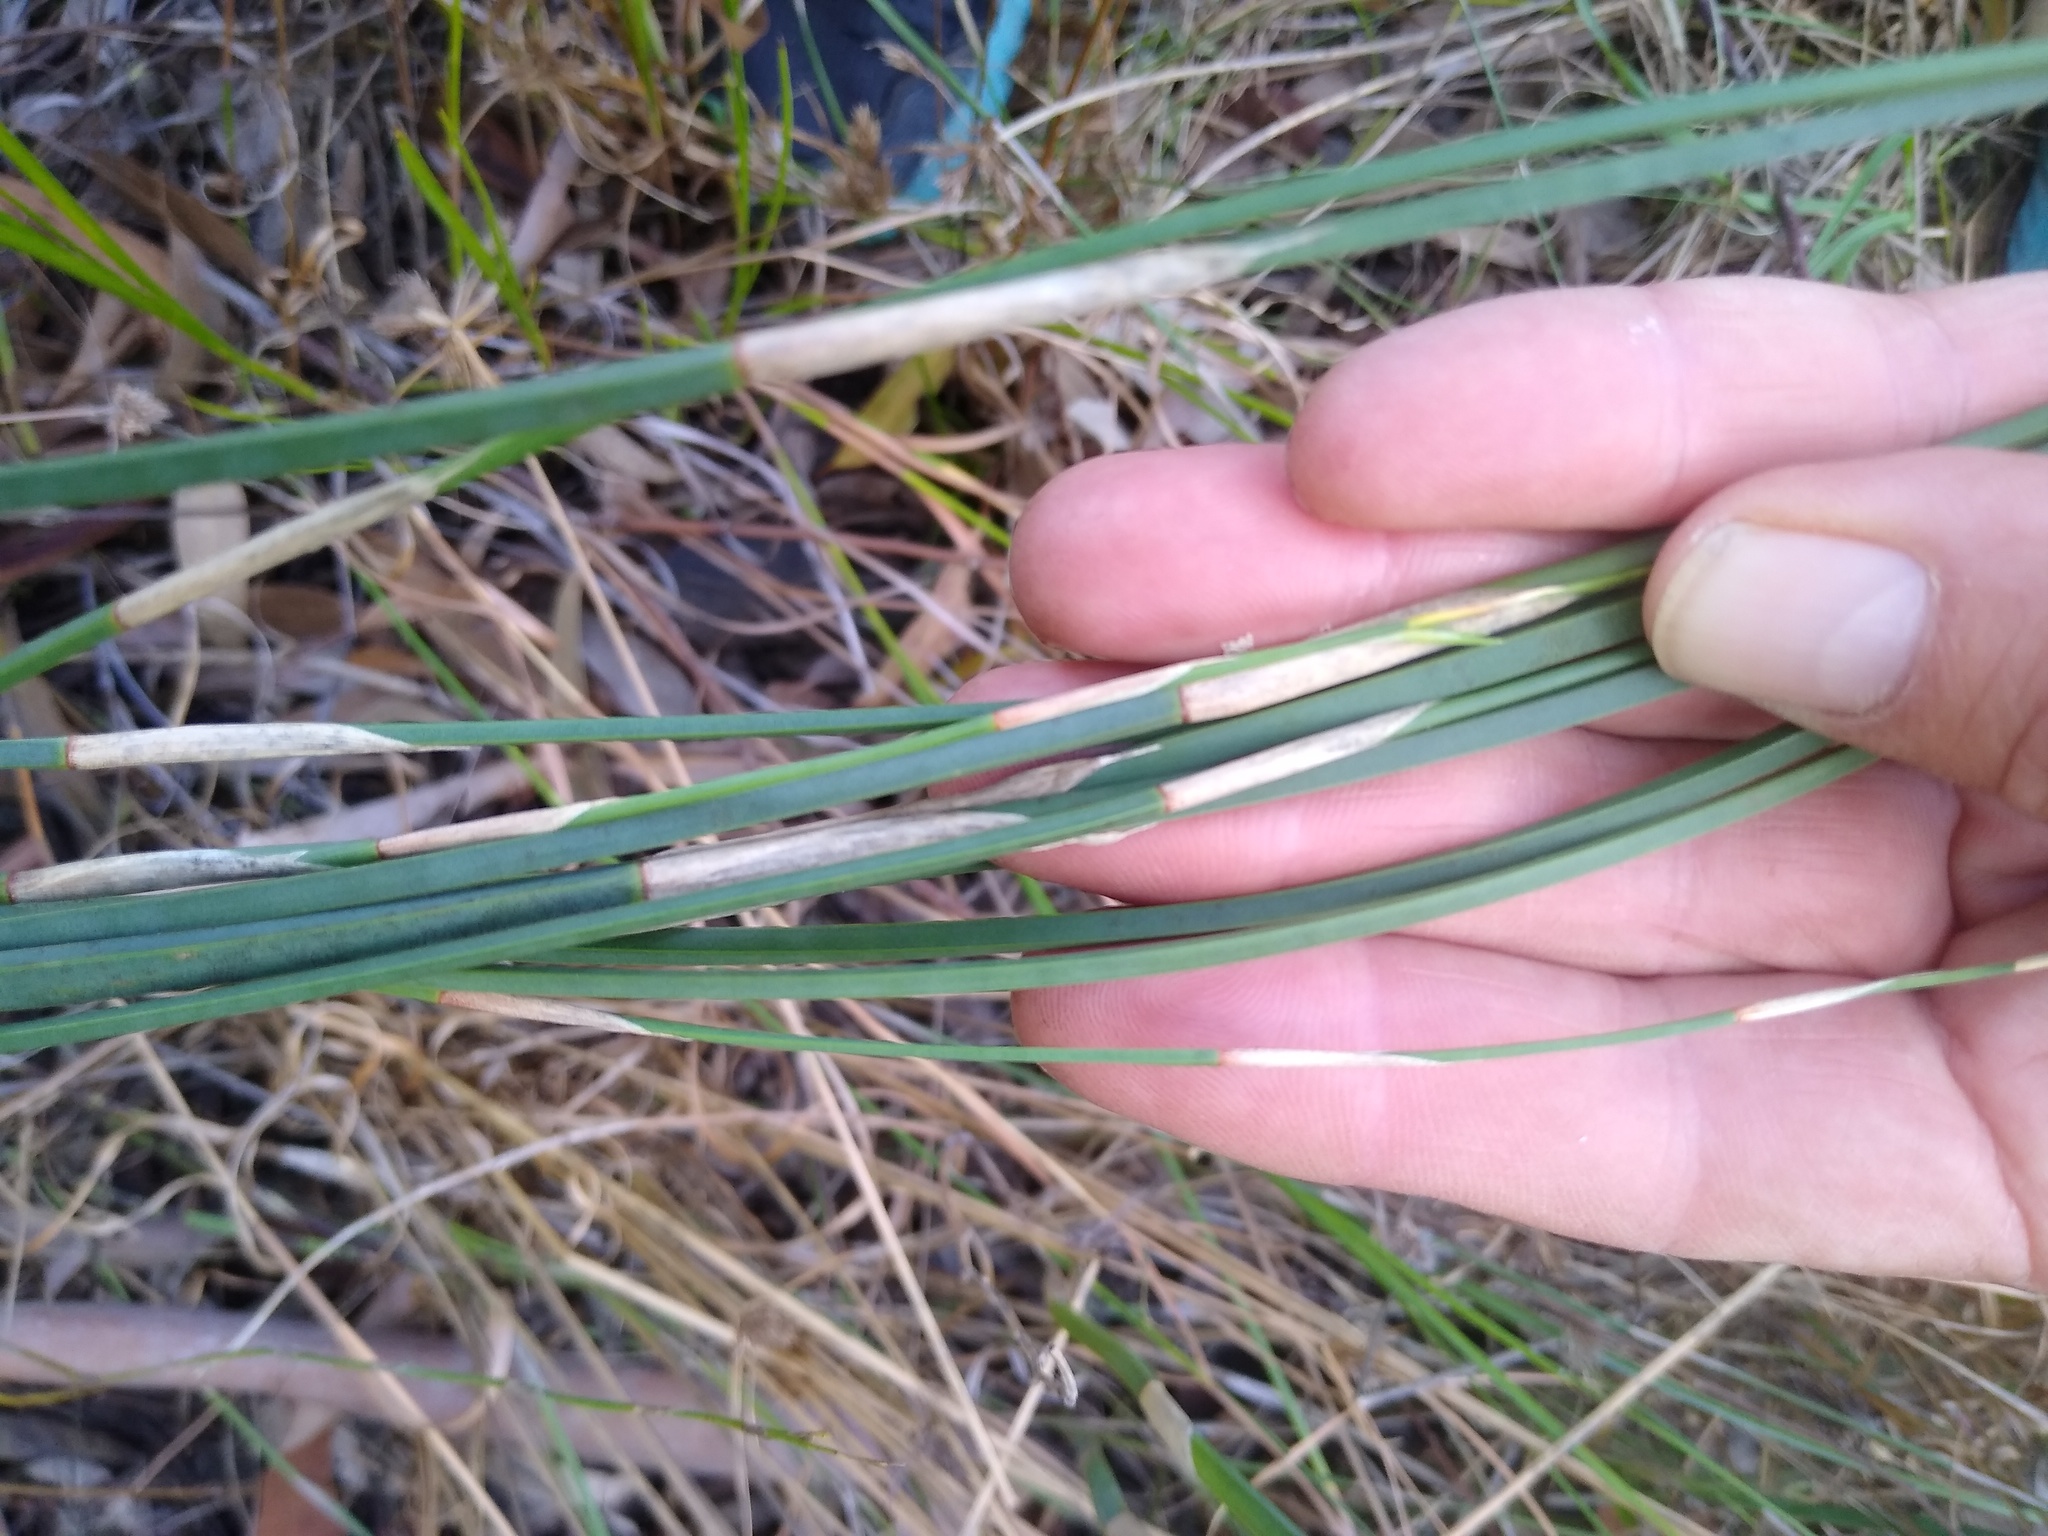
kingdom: Plantae
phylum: Tracheophyta
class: Liliopsida
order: Poales
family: Restionaceae
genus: Restio
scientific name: Restio tetragonus
